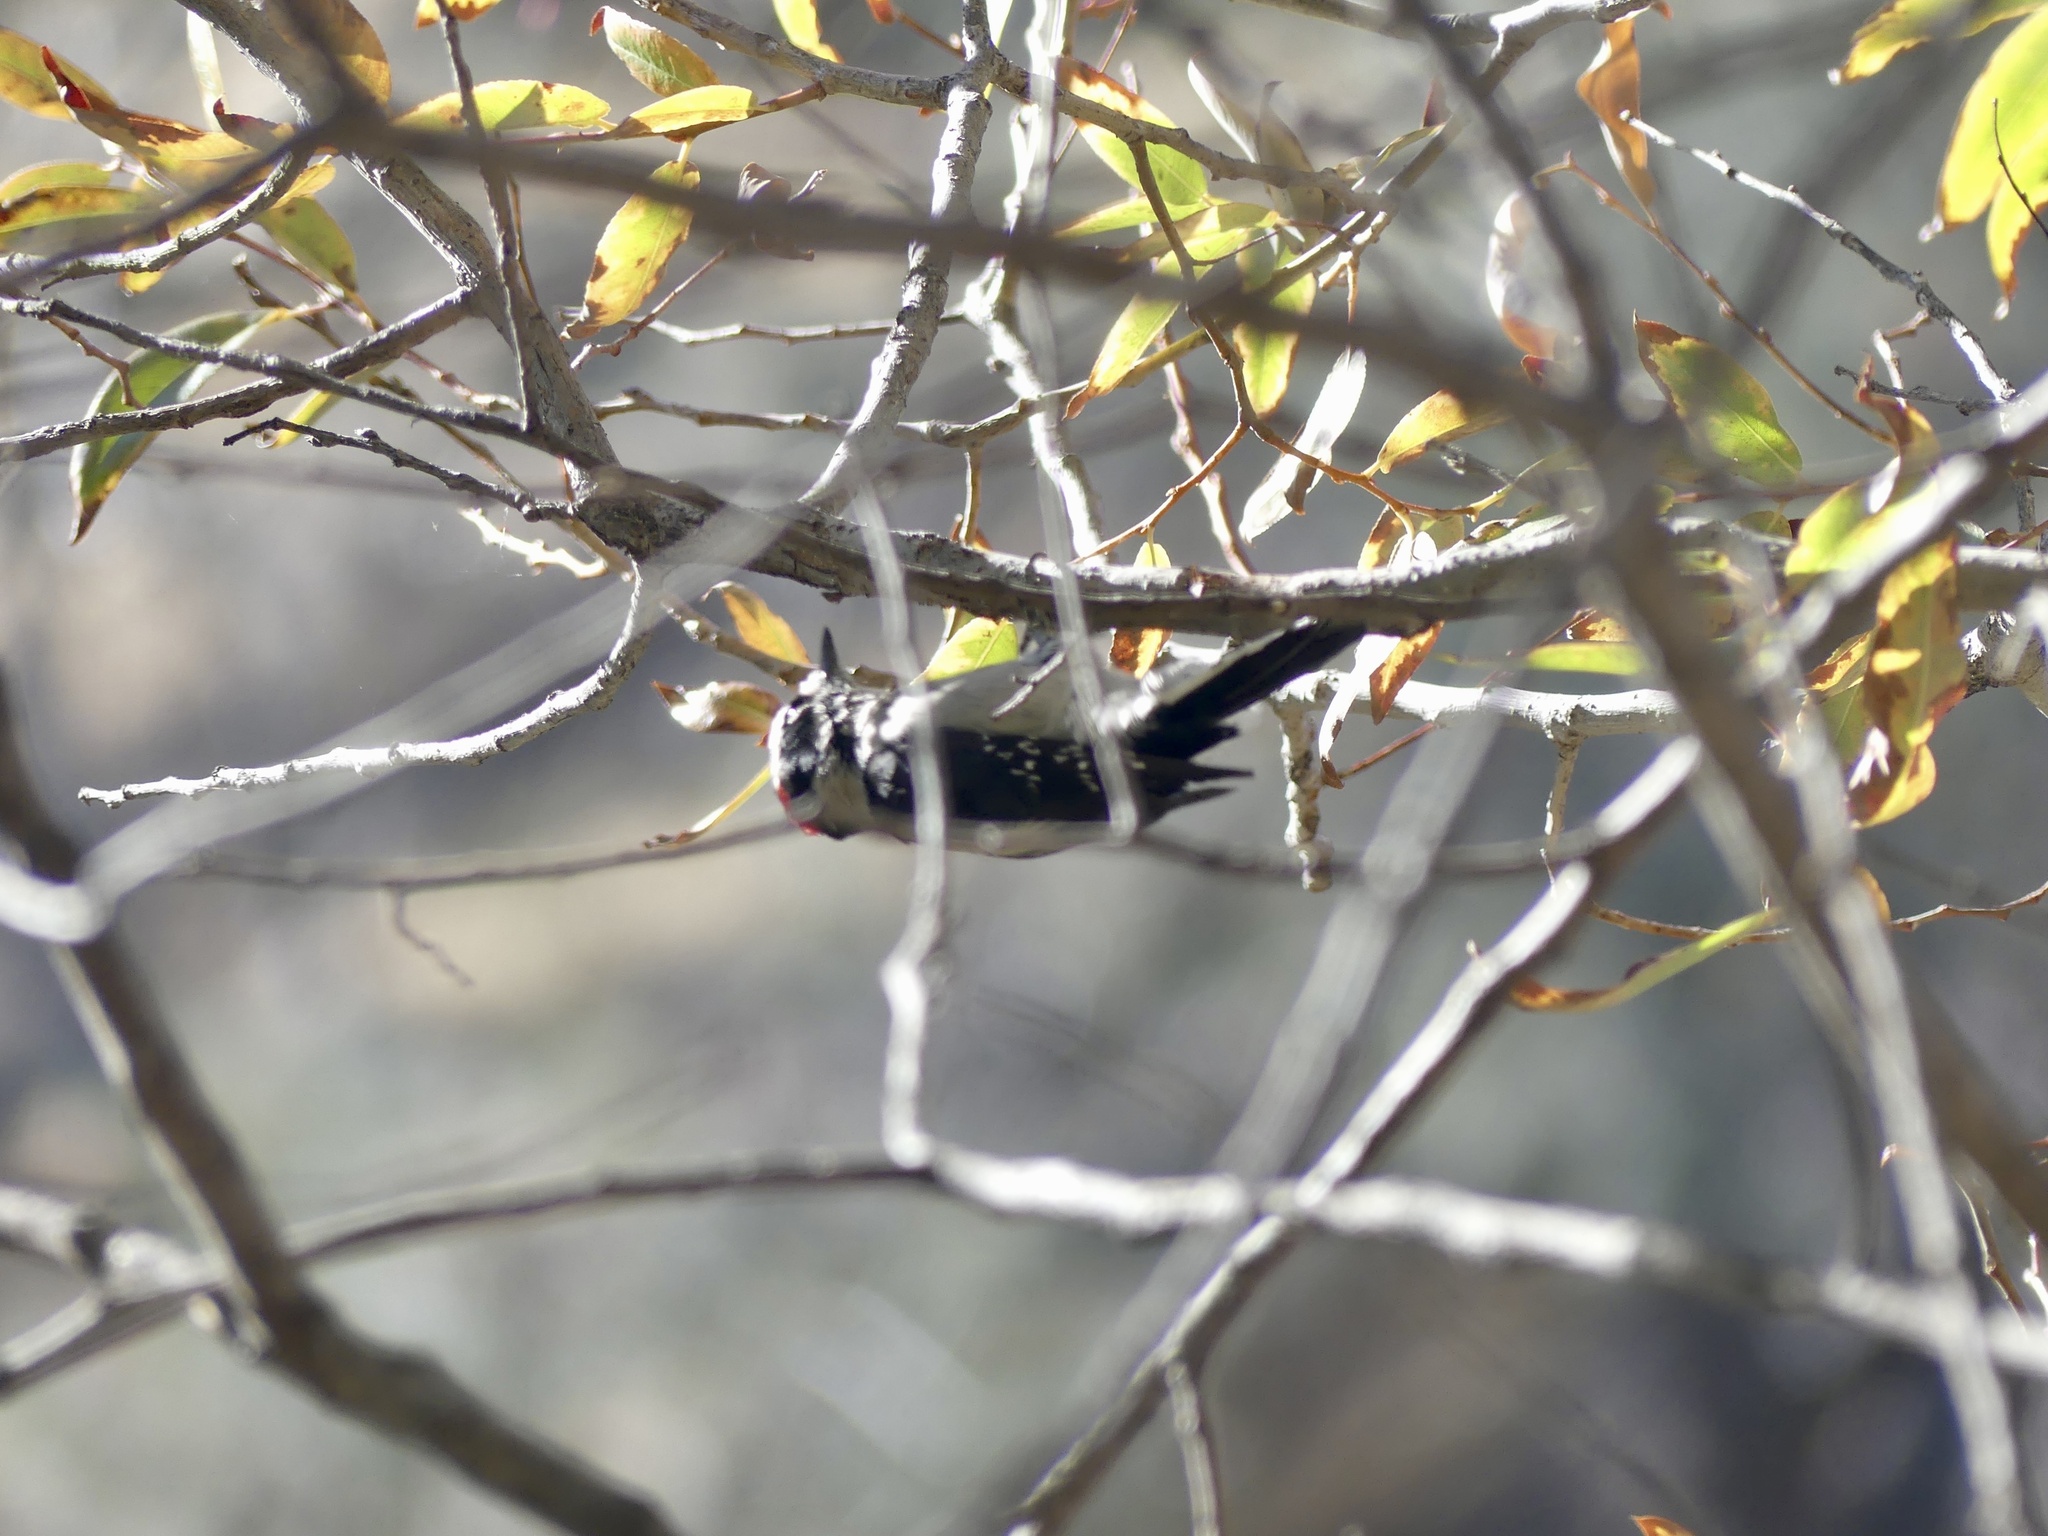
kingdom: Animalia
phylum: Chordata
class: Aves
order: Piciformes
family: Picidae
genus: Dryobates
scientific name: Dryobates pubescens
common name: Downy woodpecker
